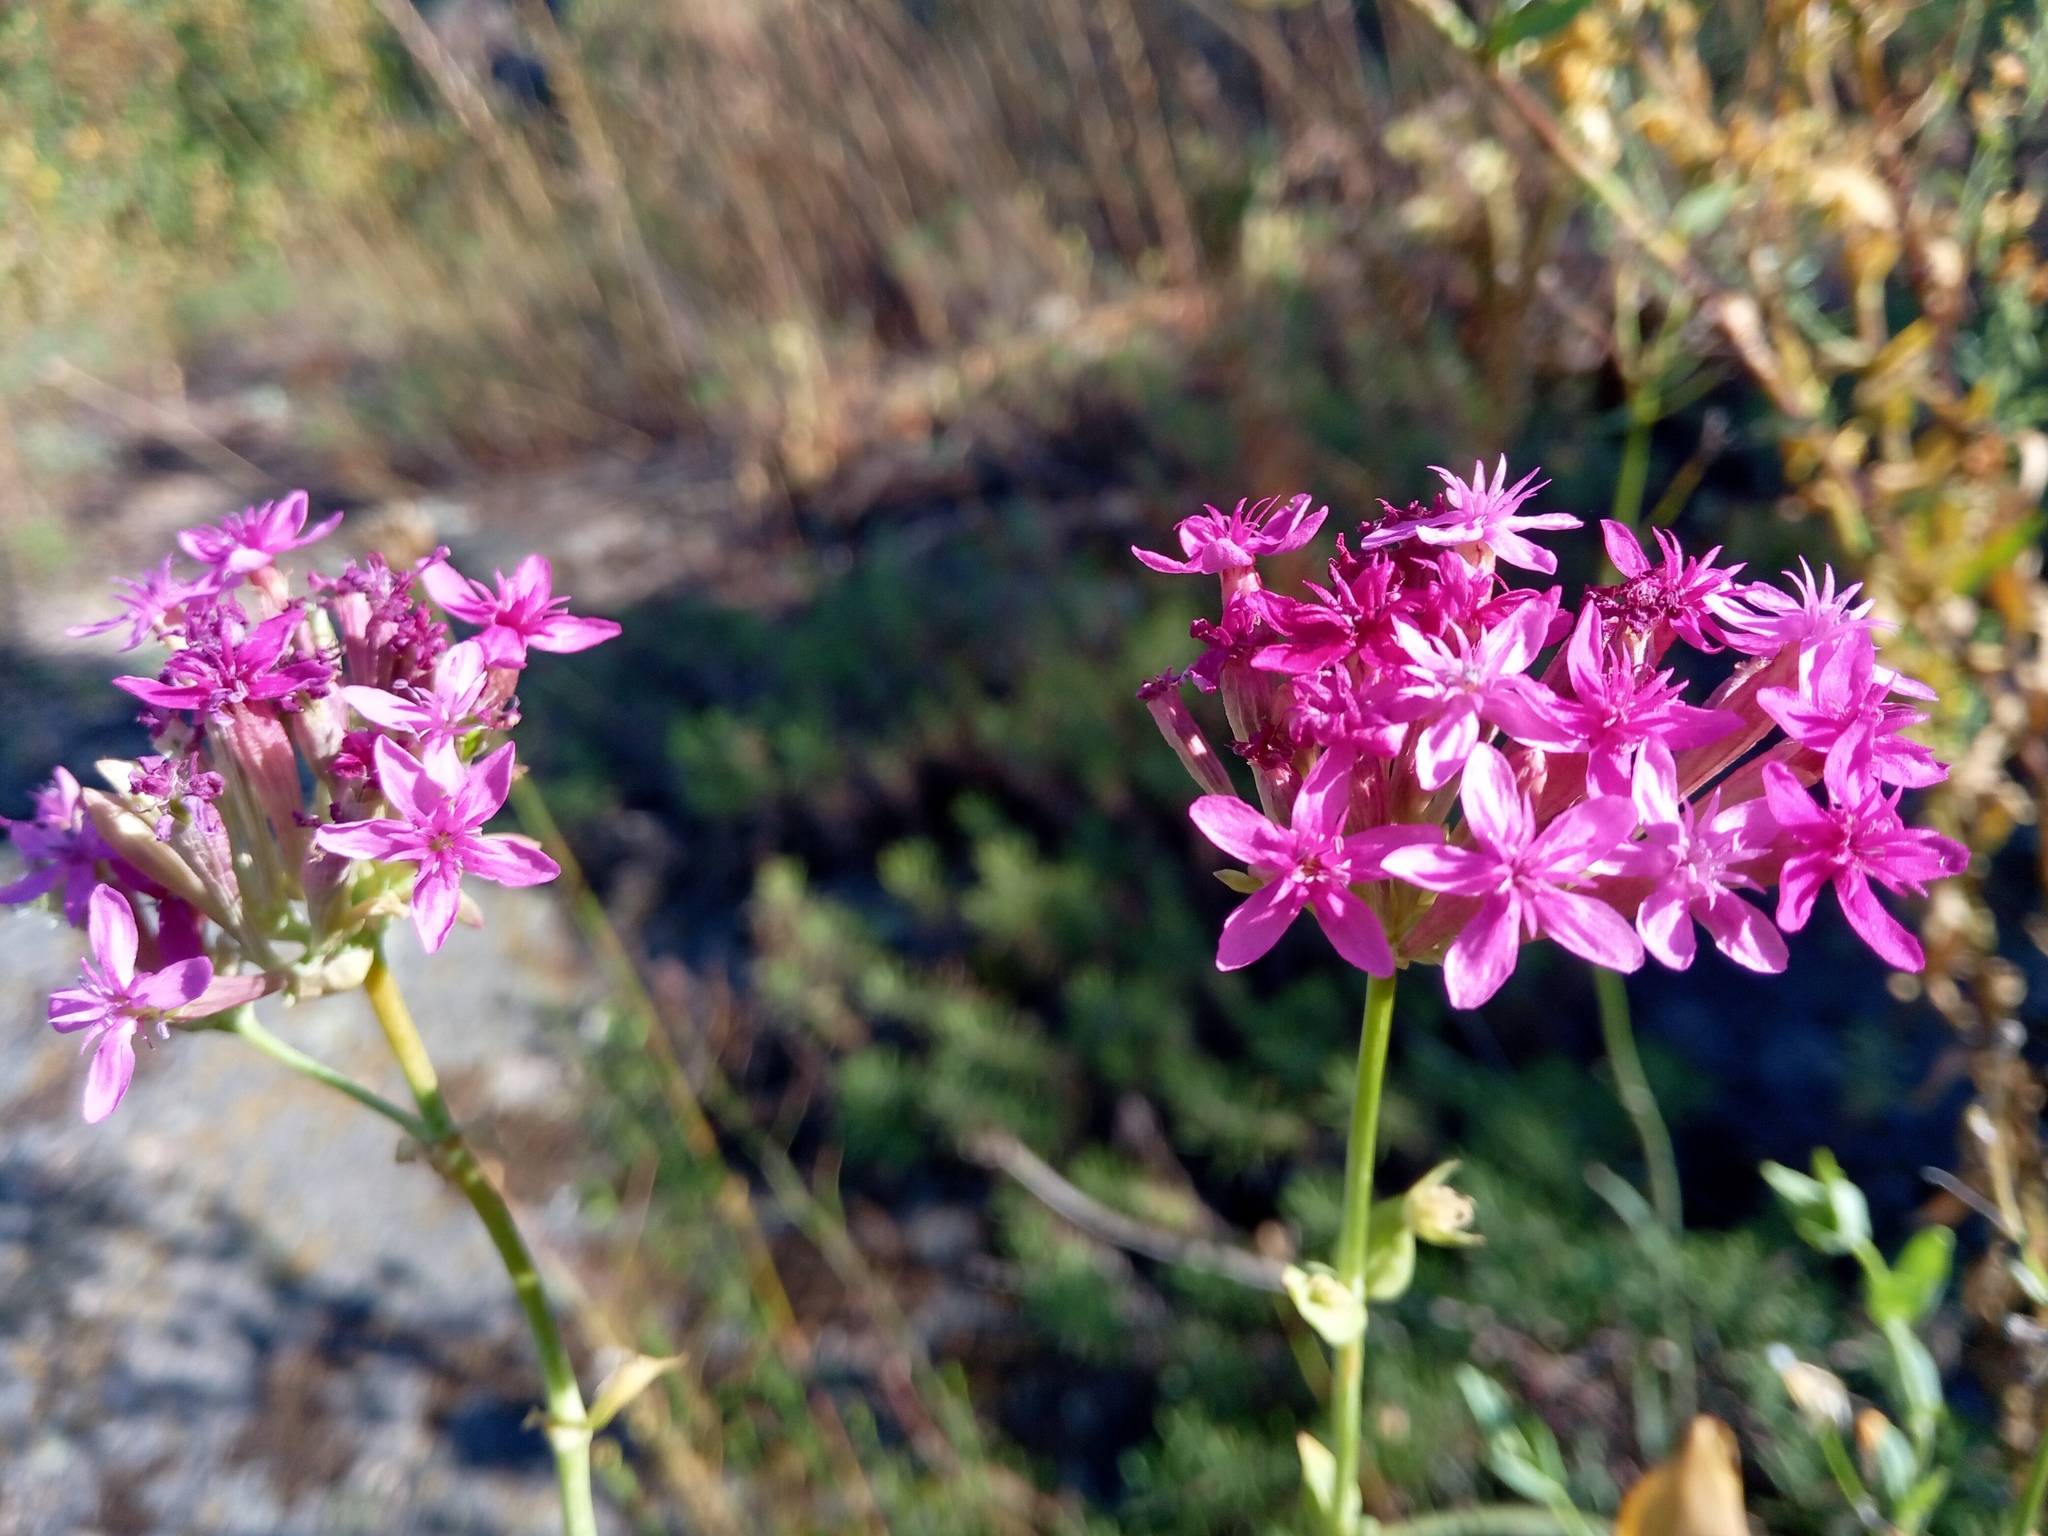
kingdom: Plantae
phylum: Tracheophyta
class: Magnoliopsida
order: Caryophyllales
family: Caryophyllaceae
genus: Atocion
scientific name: Atocion compactum
